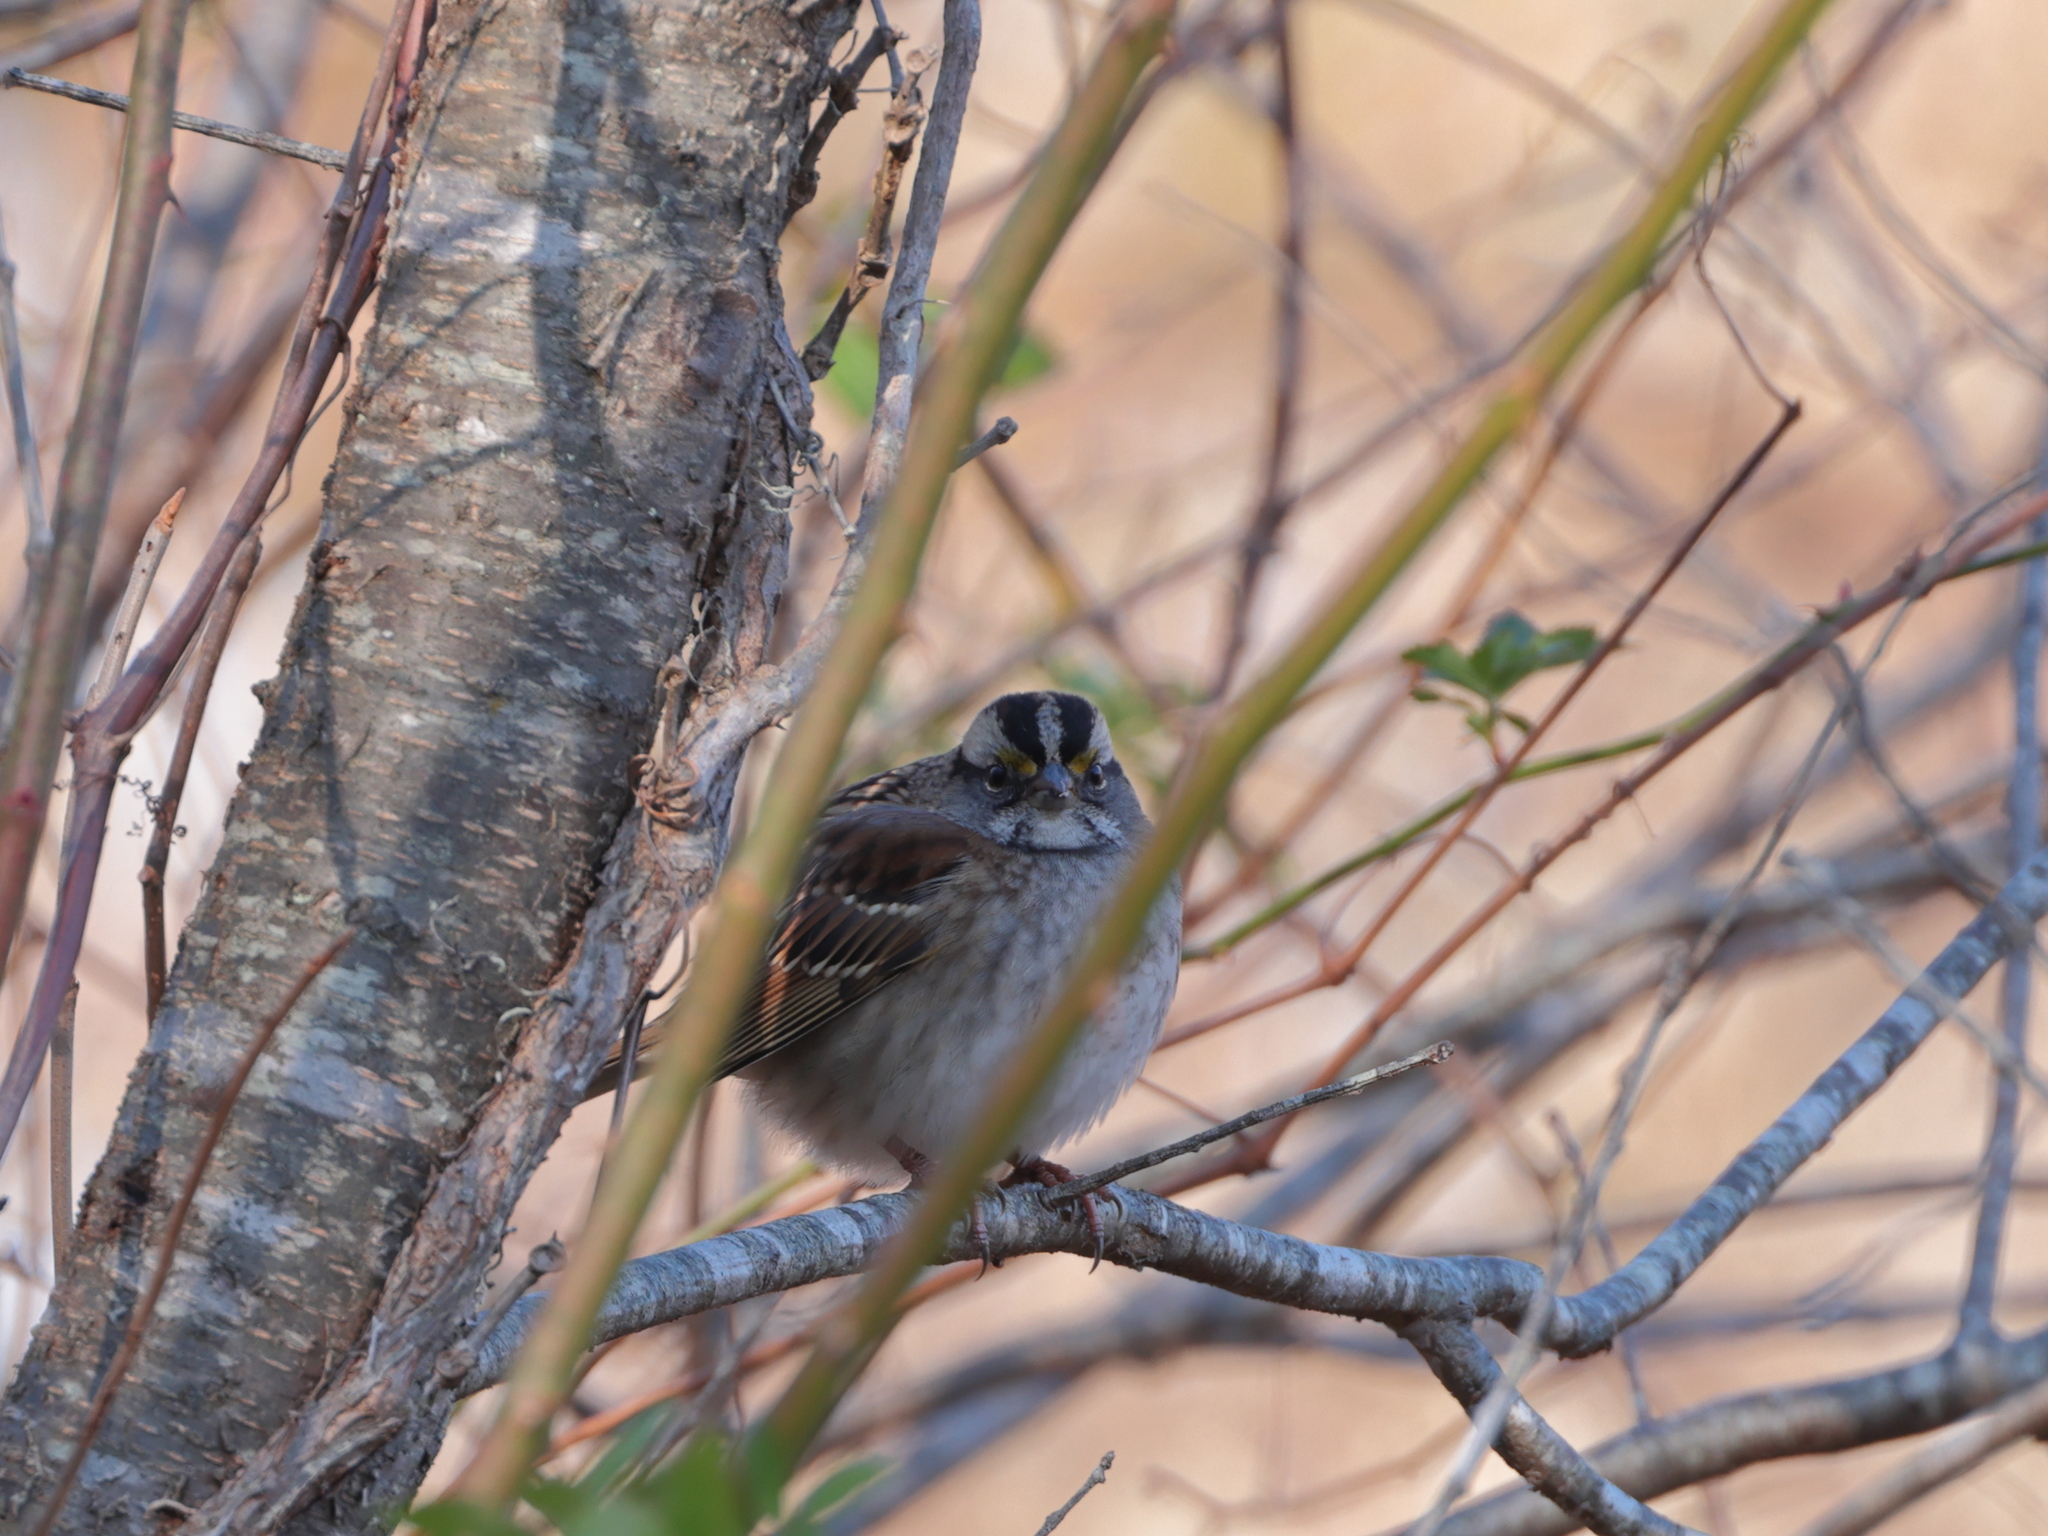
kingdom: Animalia
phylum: Chordata
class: Aves
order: Passeriformes
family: Passerellidae
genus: Zonotrichia
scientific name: Zonotrichia albicollis
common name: White-throated sparrow
